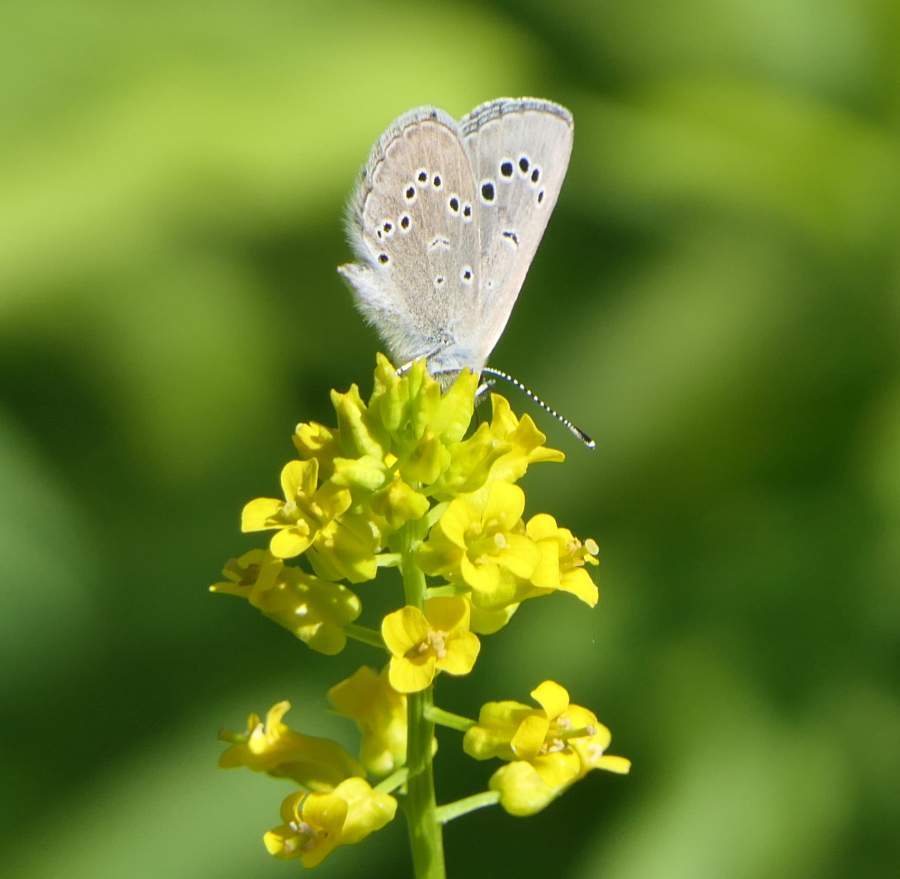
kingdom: Animalia
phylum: Arthropoda
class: Insecta
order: Lepidoptera
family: Lycaenidae
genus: Glaucopsyche
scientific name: Glaucopsyche lygdamus
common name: Silvery blue
